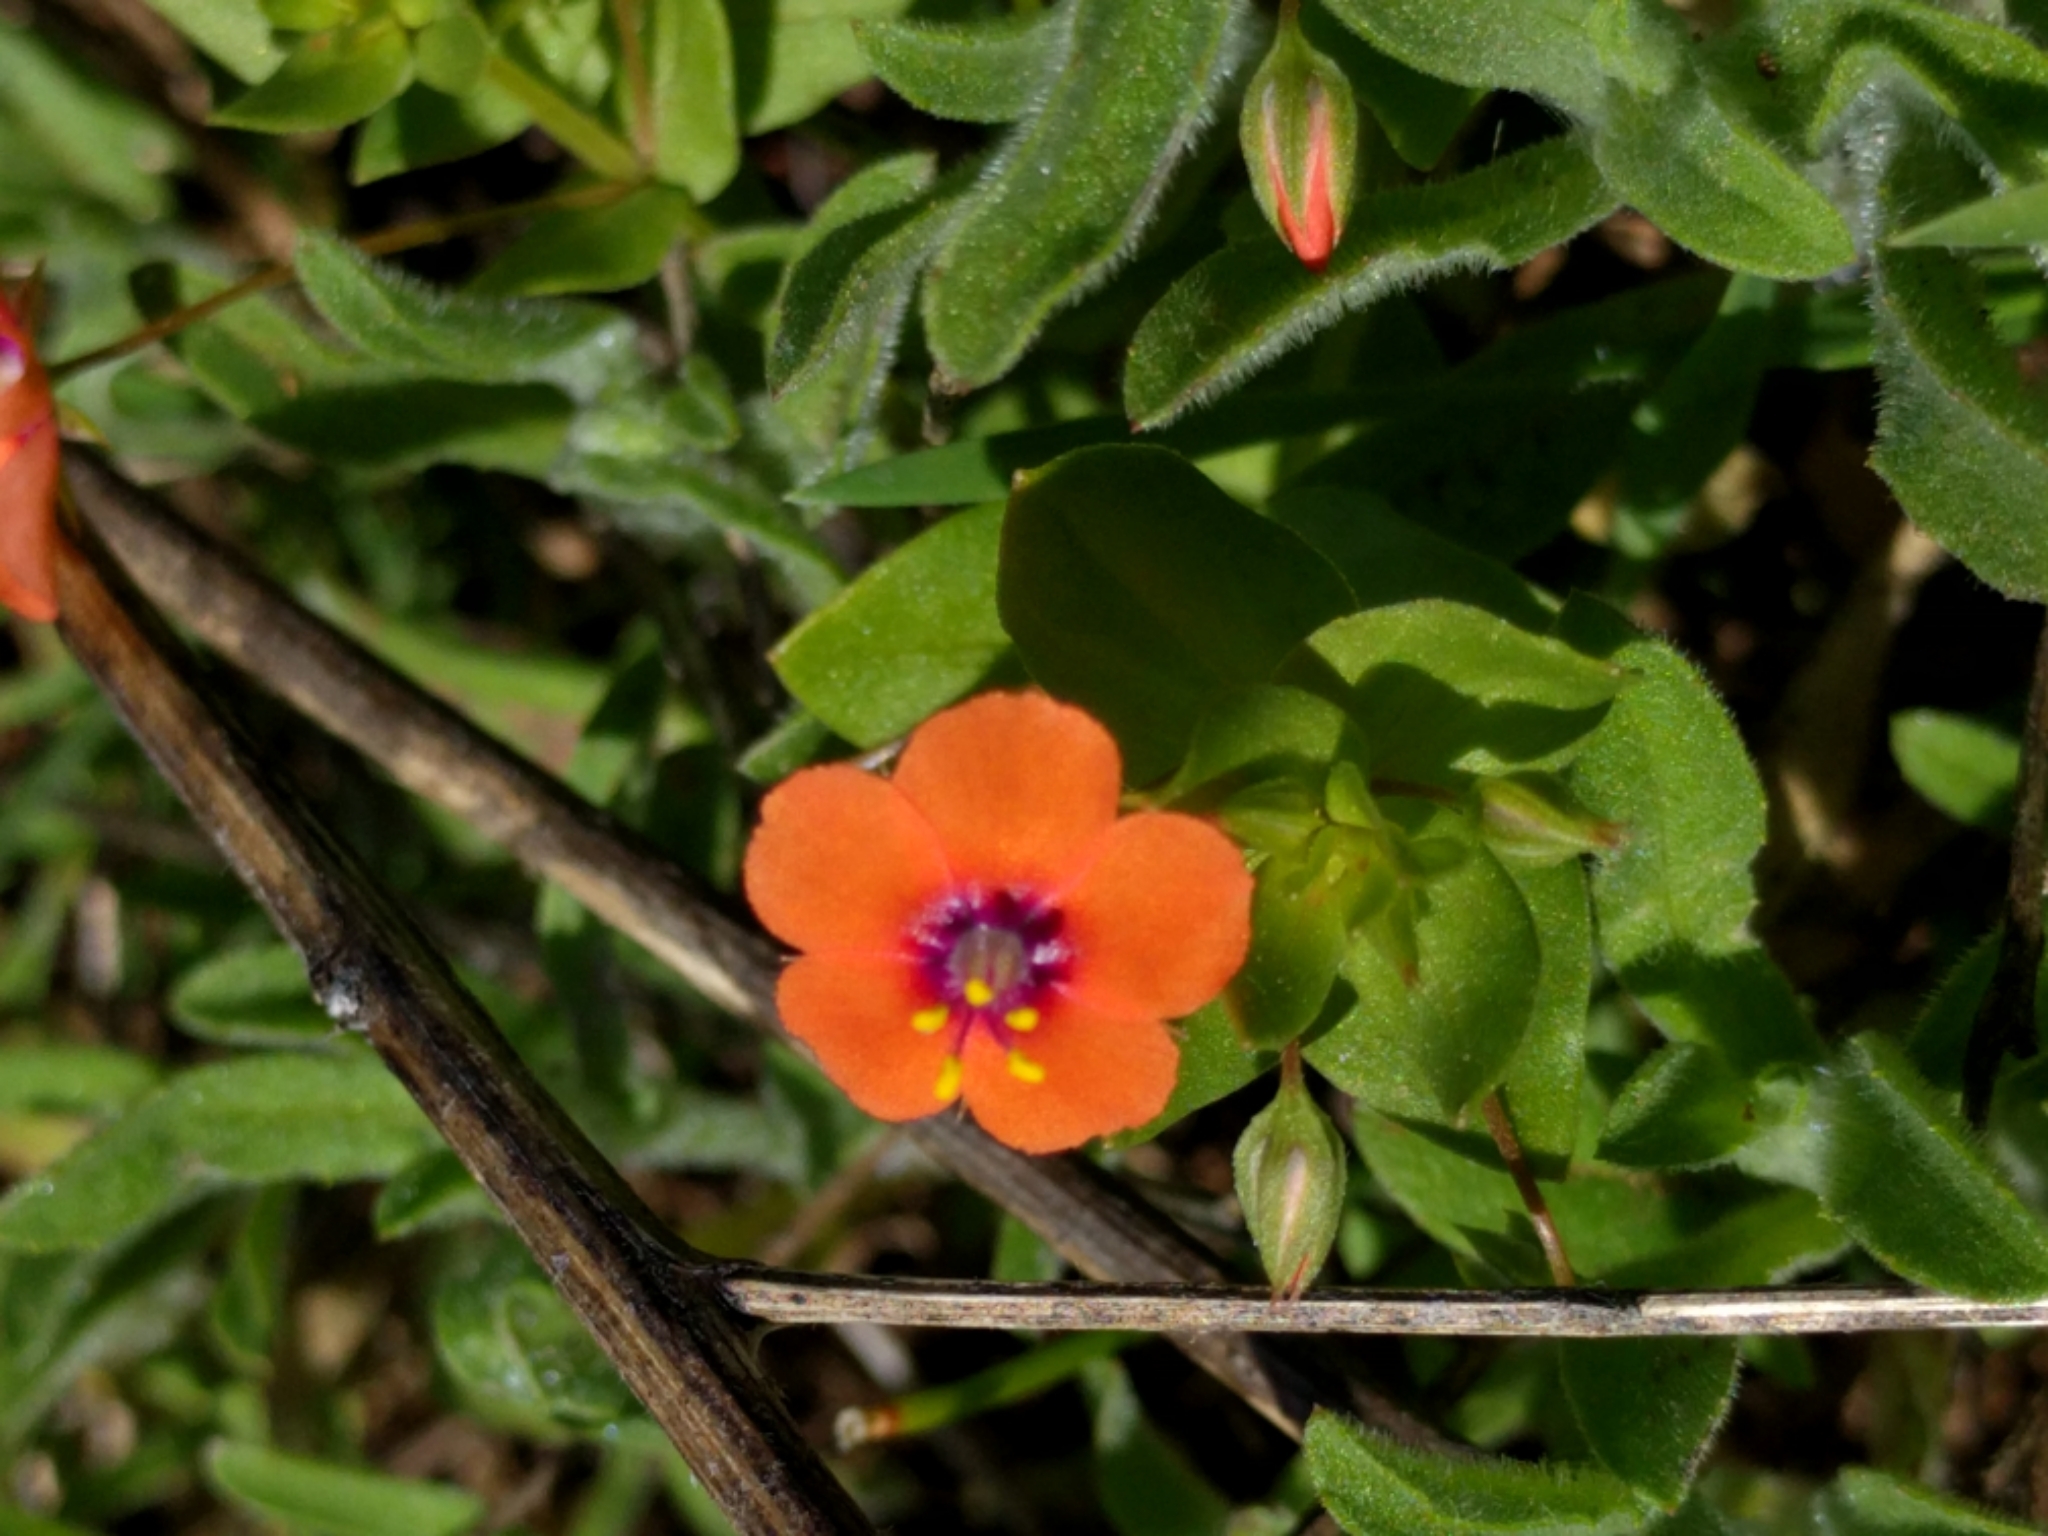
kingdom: Plantae
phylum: Tracheophyta
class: Magnoliopsida
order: Ericales
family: Primulaceae
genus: Lysimachia
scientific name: Lysimachia arvensis
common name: Scarlet pimpernel
